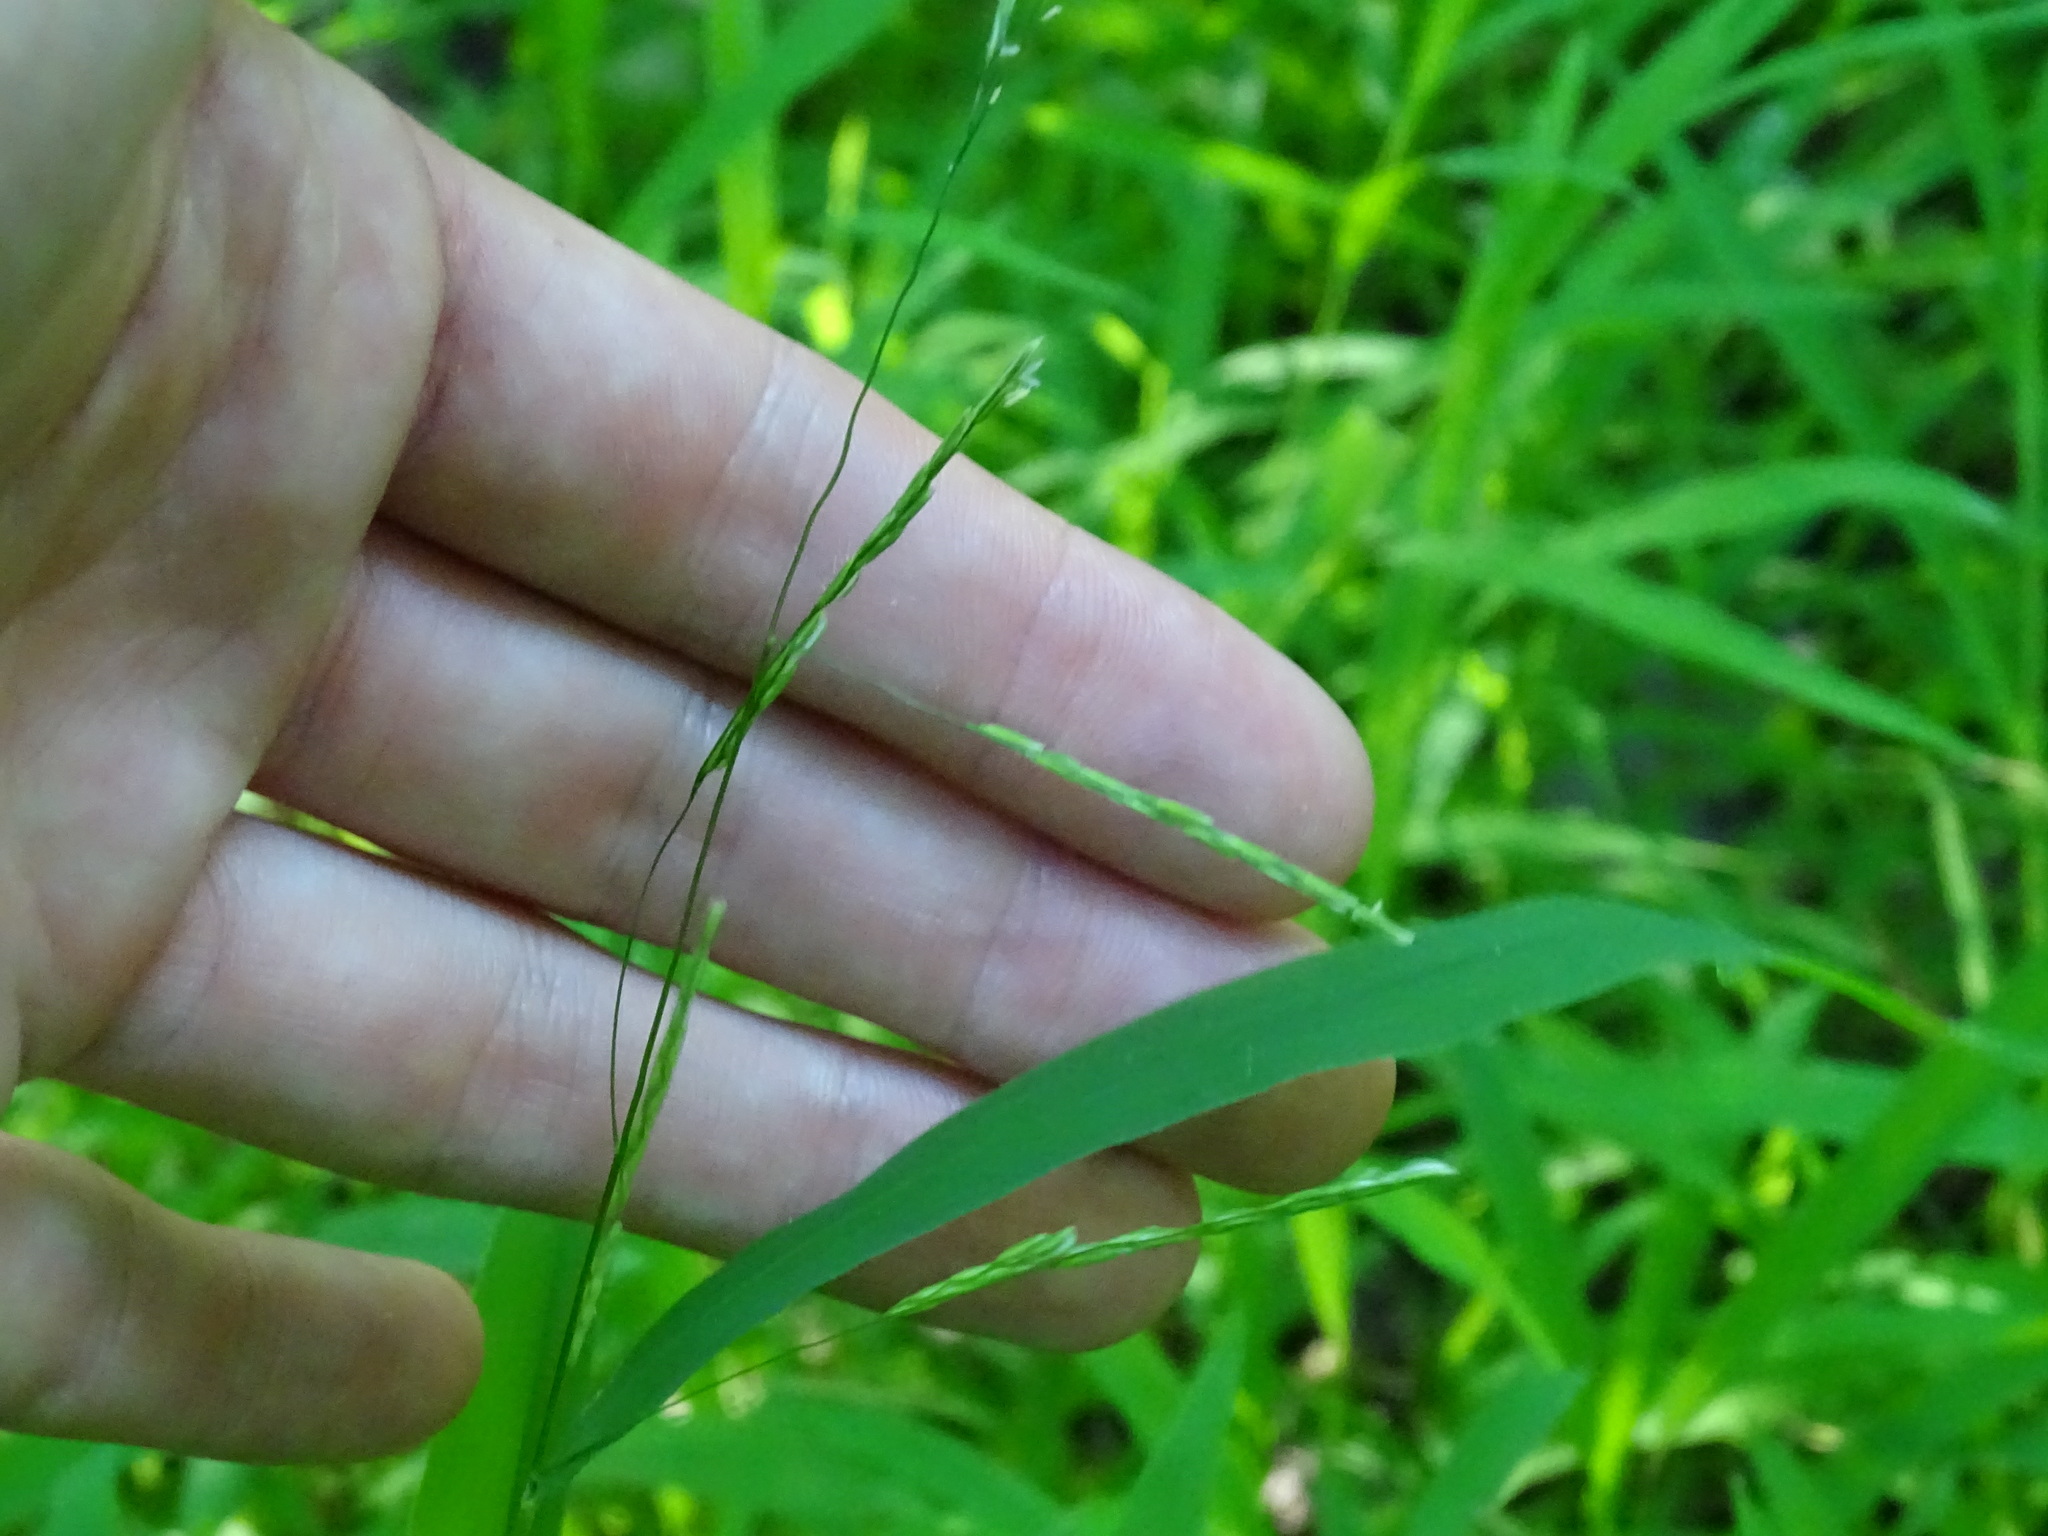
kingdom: Plantae
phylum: Tracheophyta
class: Liliopsida
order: Poales
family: Poaceae
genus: Leersia
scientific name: Leersia virginica
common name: White cutgrass
